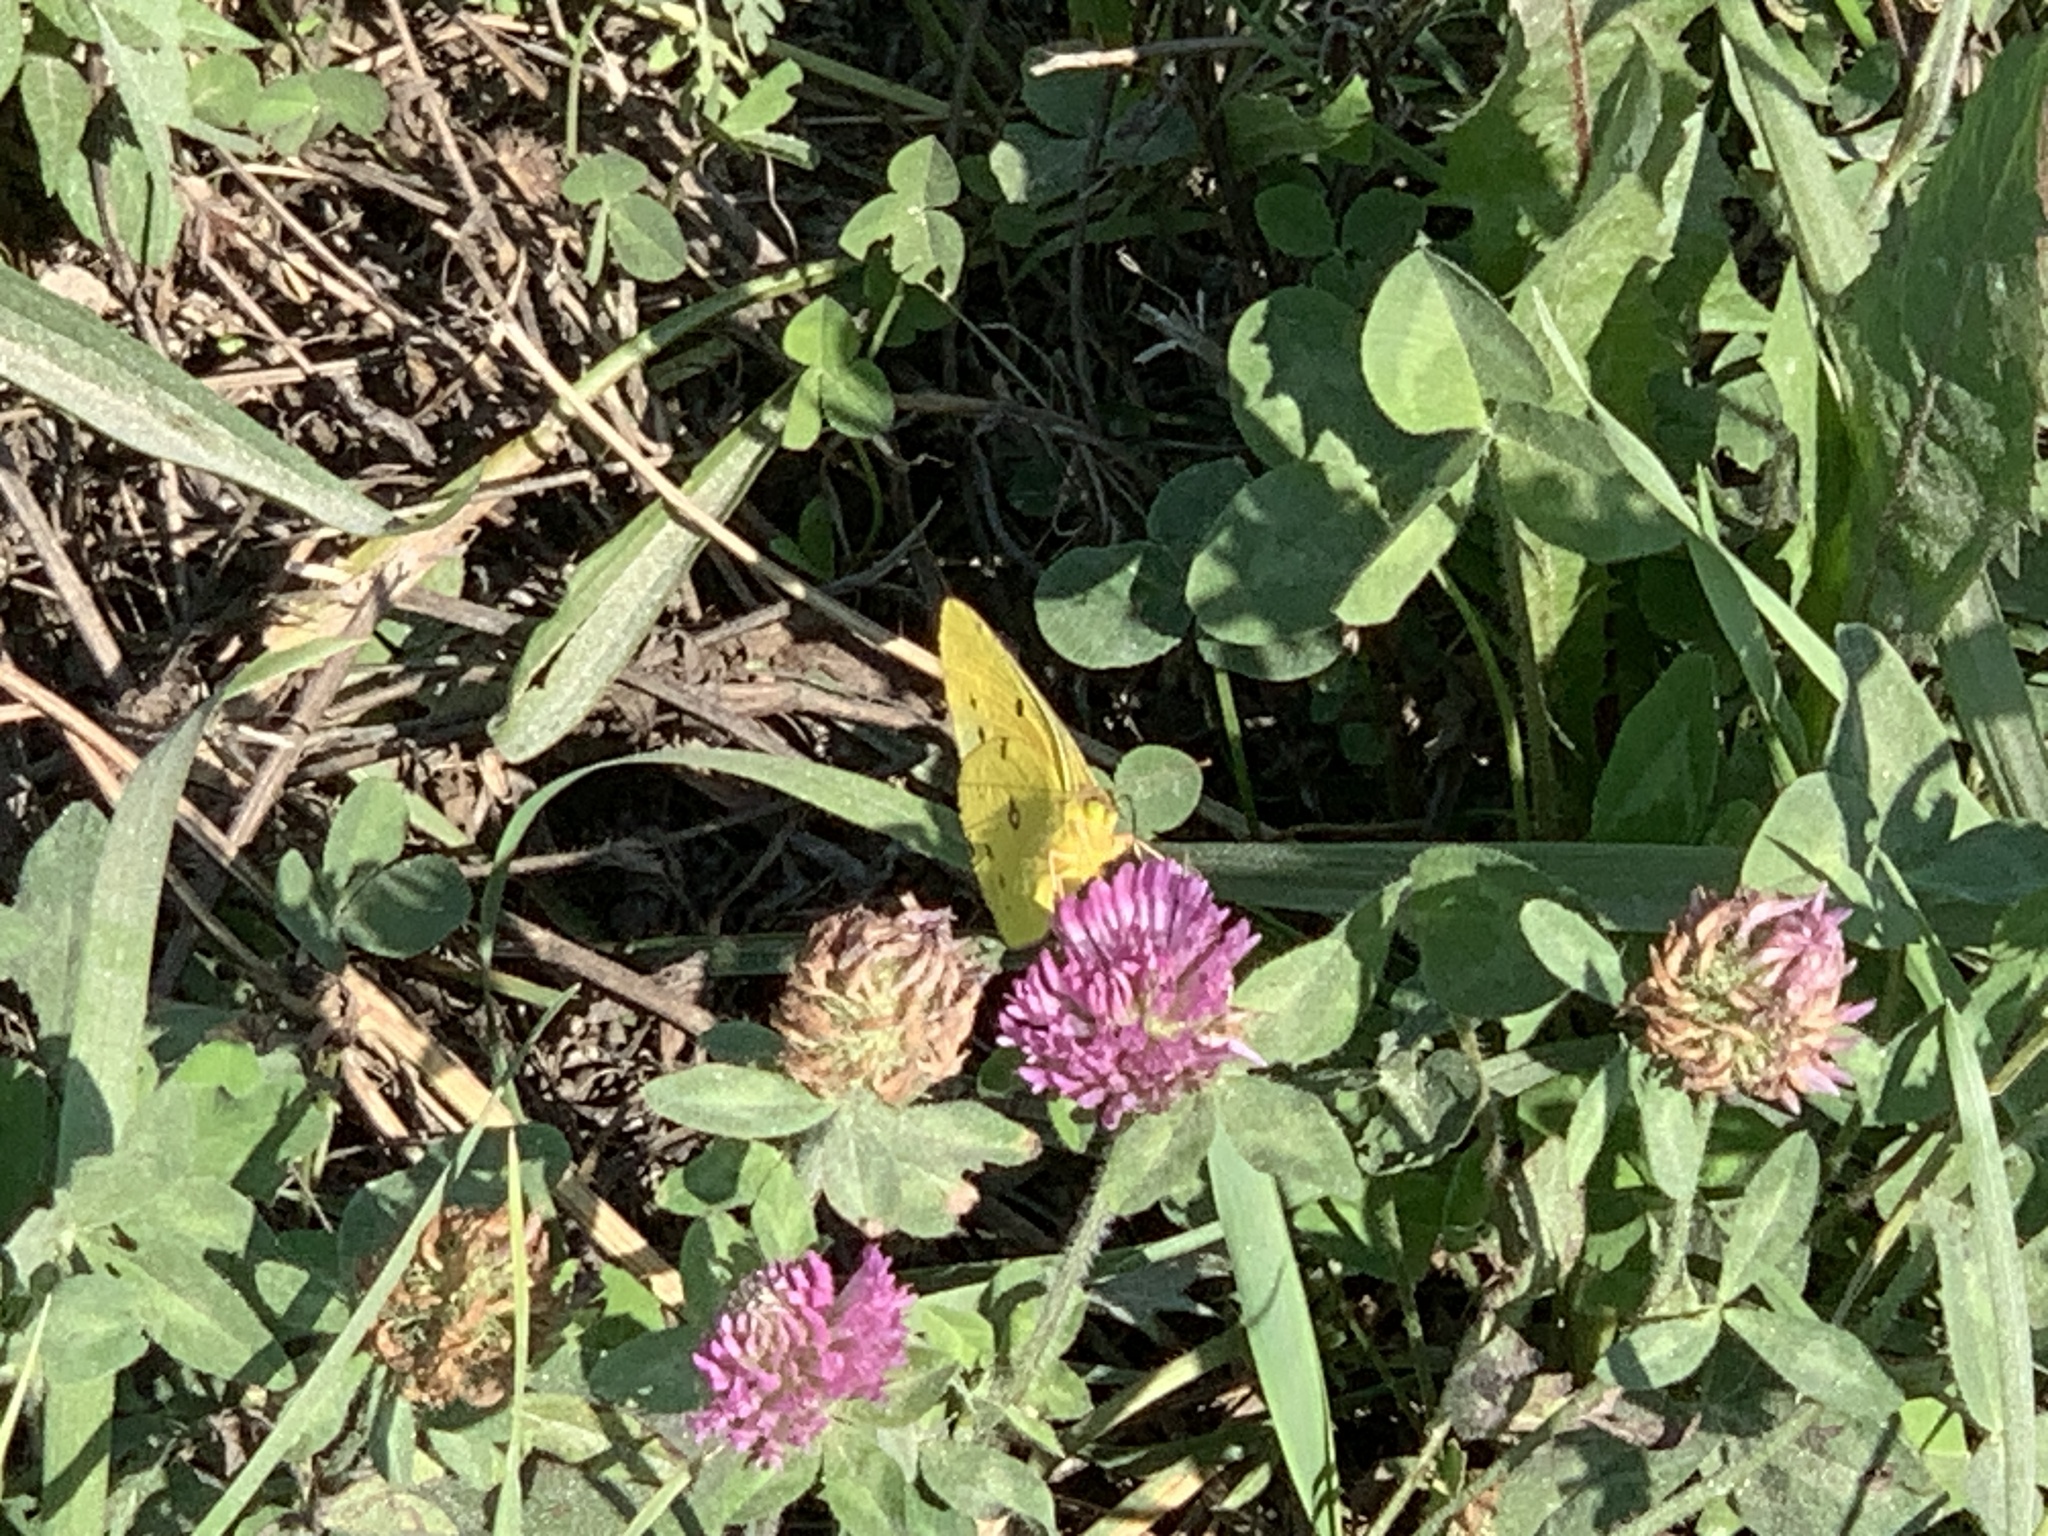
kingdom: Animalia
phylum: Arthropoda
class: Insecta
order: Lepidoptera
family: Pieridae
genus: Colias
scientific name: Colias eurytheme
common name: Alfalfa butterfly
